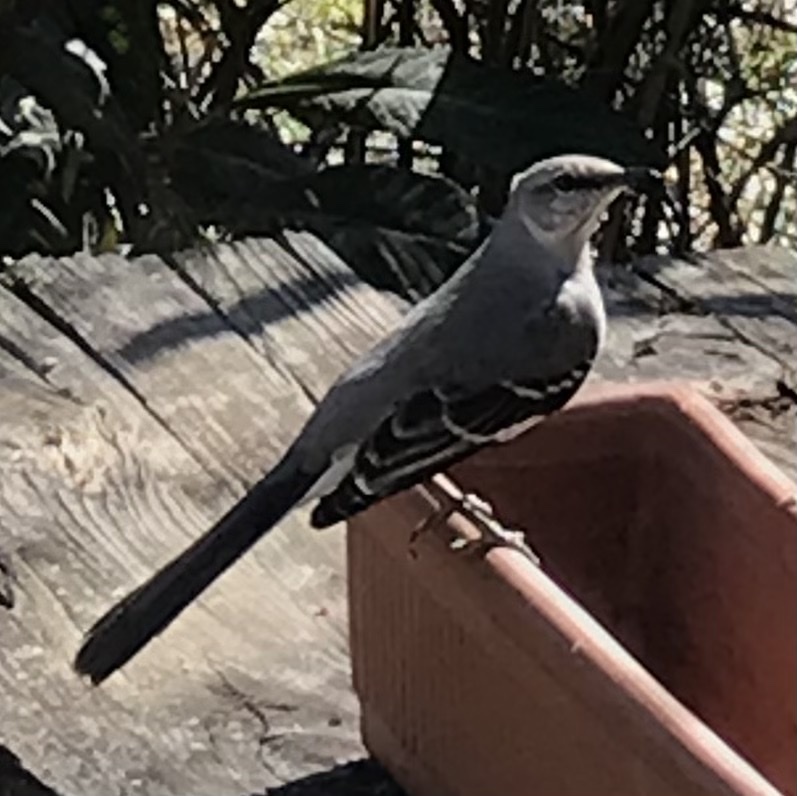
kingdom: Animalia
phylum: Chordata
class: Aves
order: Passeriformes
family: Mimidae
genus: Mimus
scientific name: Mimus polyglottos
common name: Northern mockingbird
